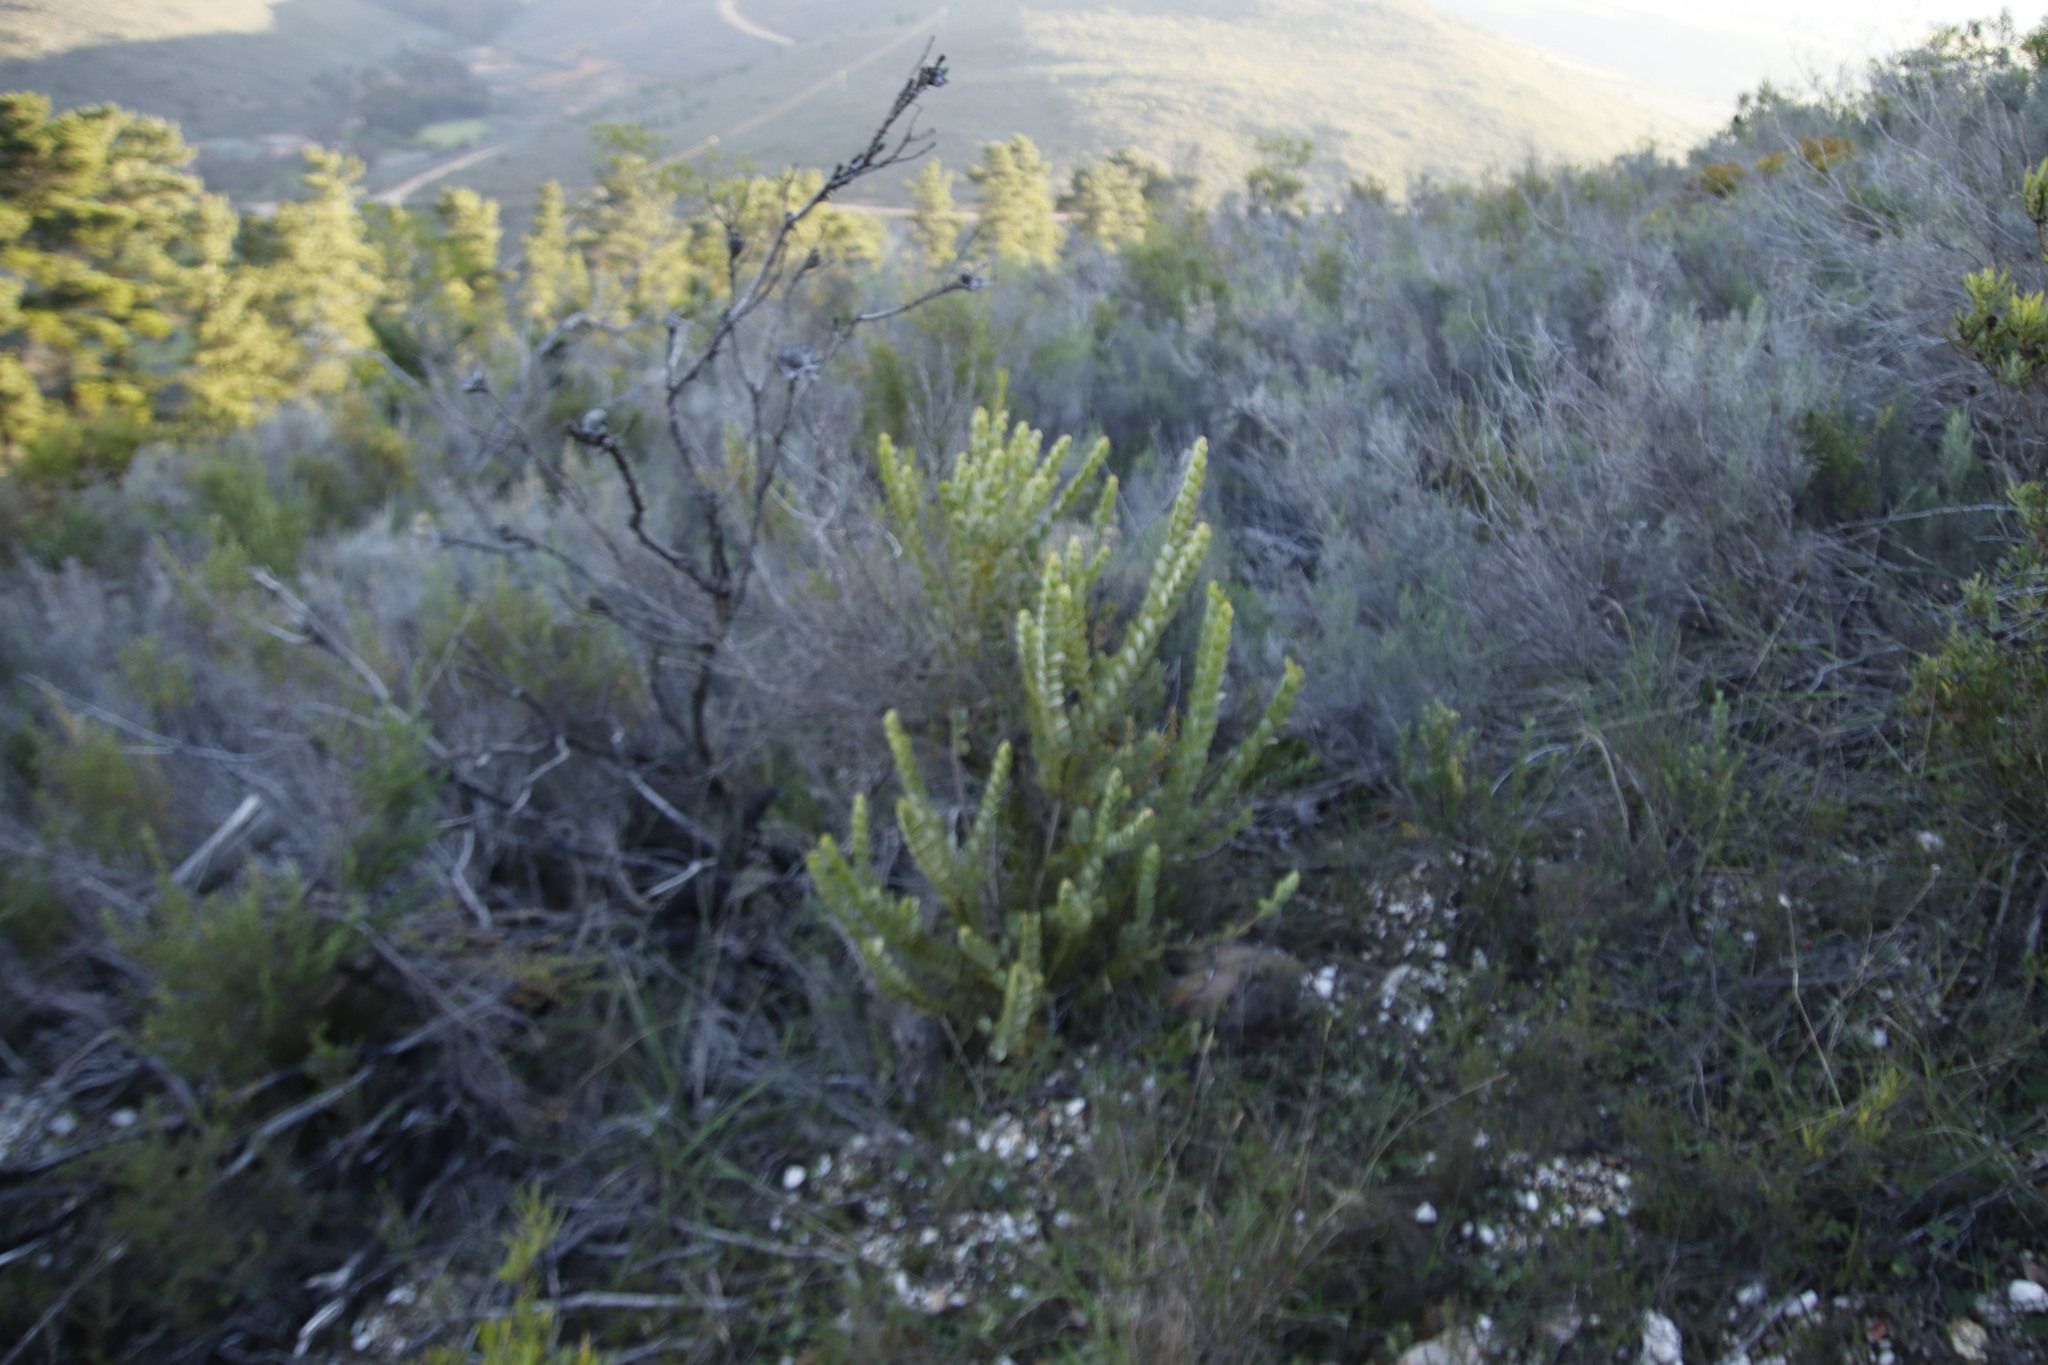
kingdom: Plantae
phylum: Tracheophyta
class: Magnoliopsida
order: Santalales
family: Santalaceae
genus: Osyris
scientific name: Osyris compressa
